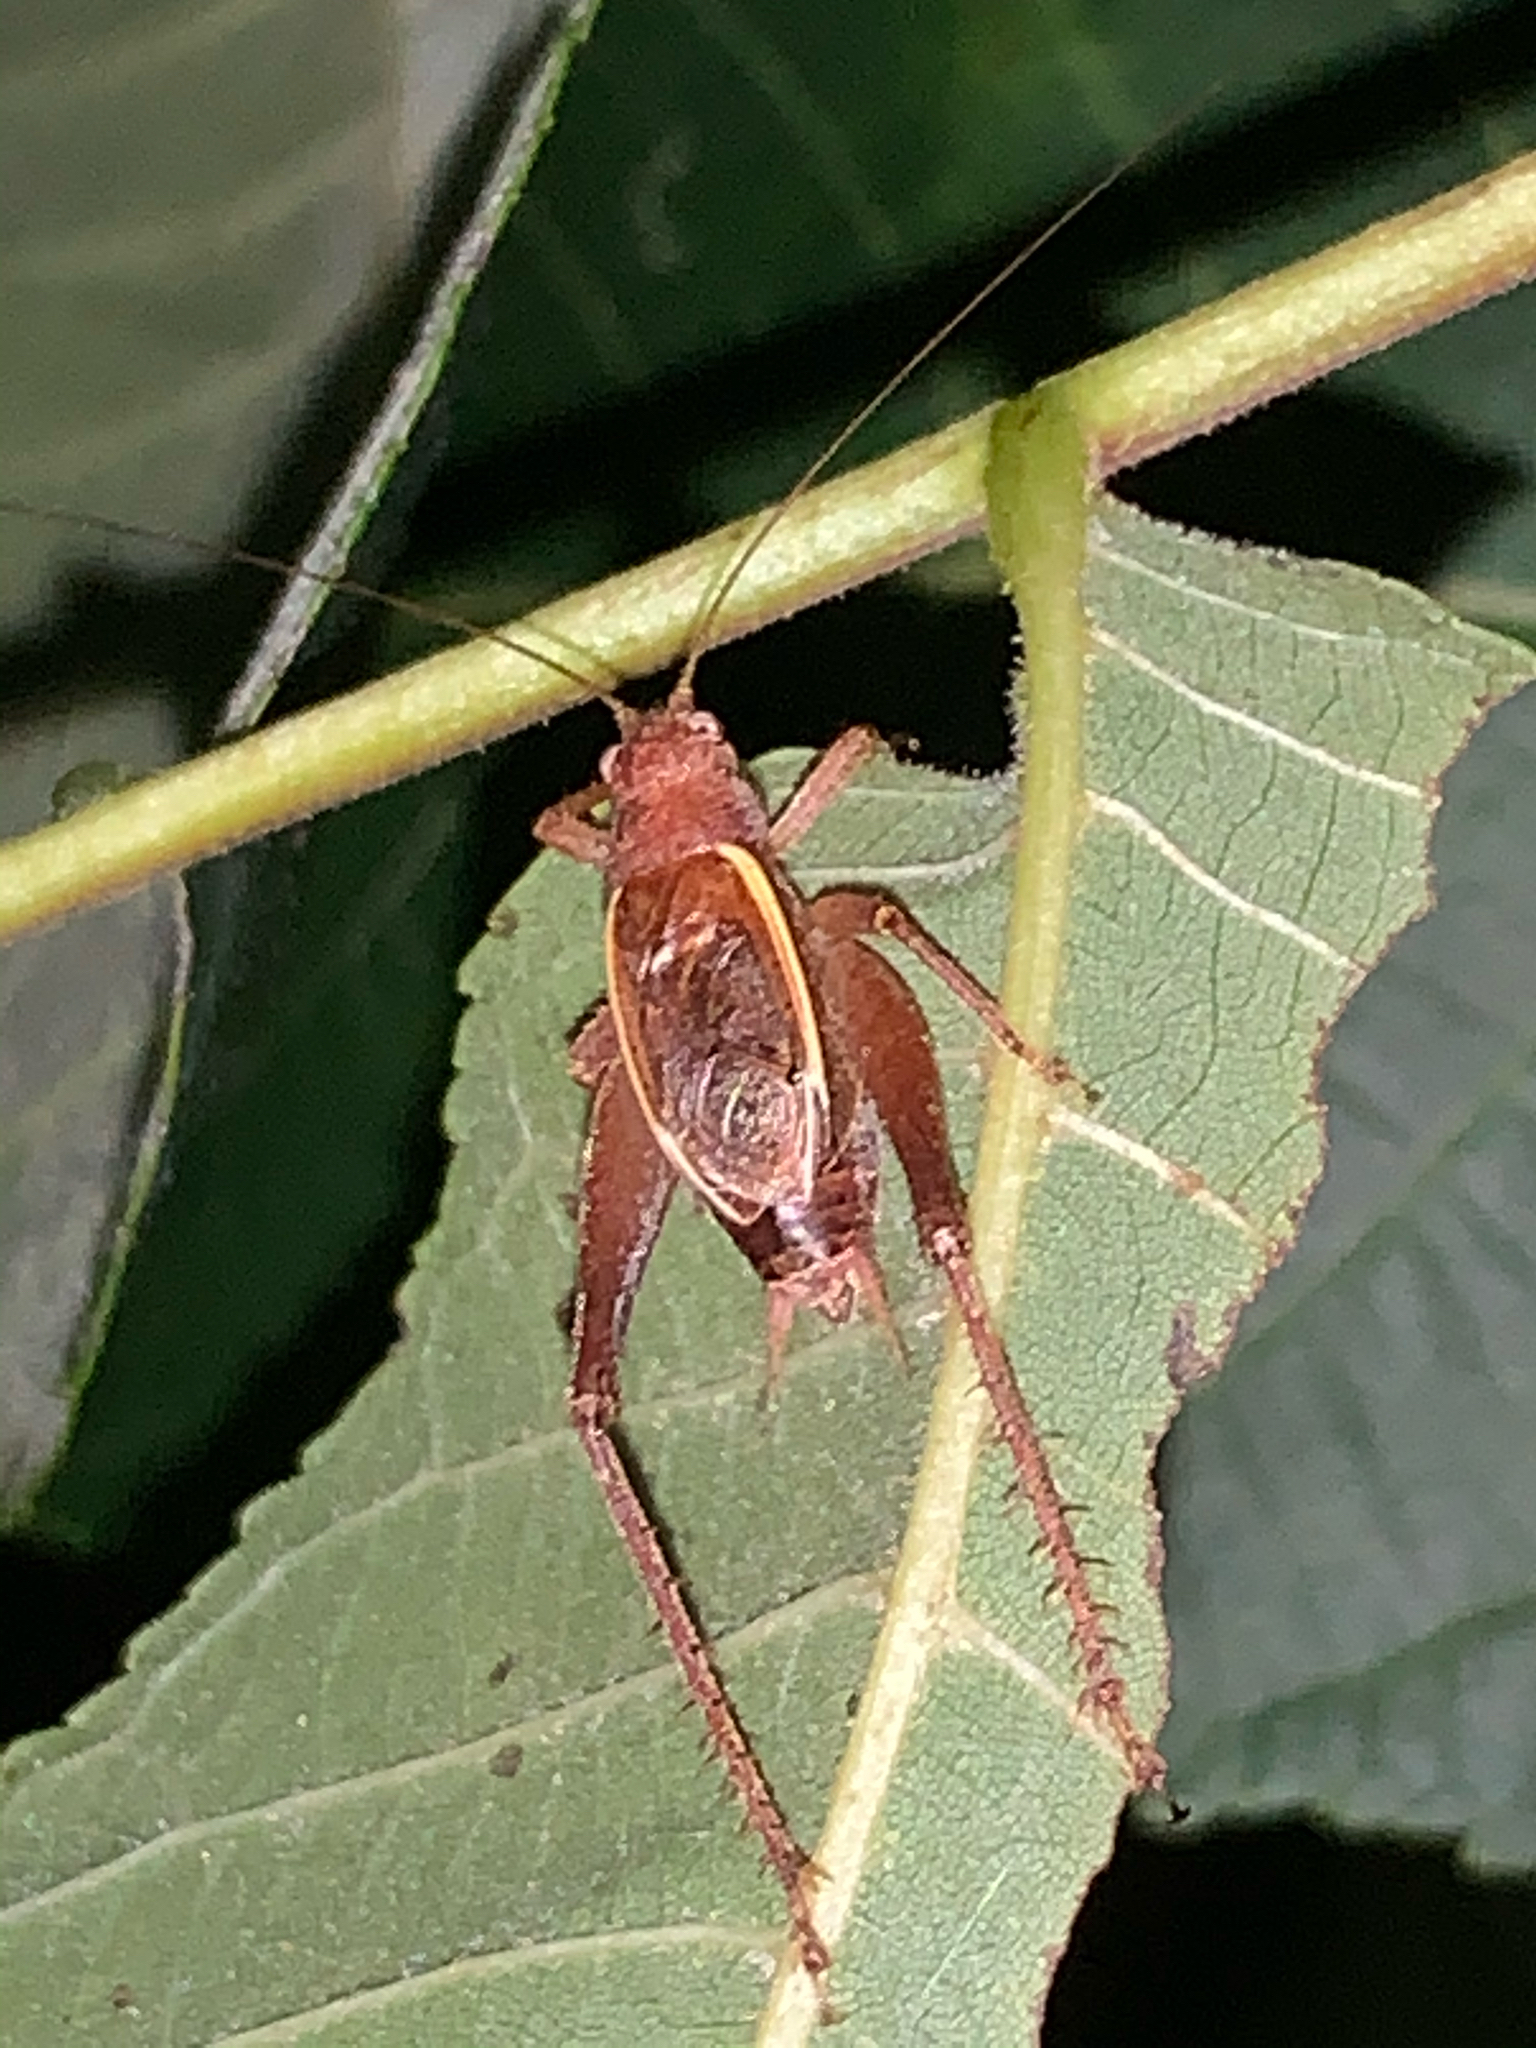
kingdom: Animalia
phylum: Arthropoda
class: Insecta
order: Orthoptera
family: Gryllidae
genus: Hapithus
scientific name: Hapithus agitator
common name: Restless bush cricket
